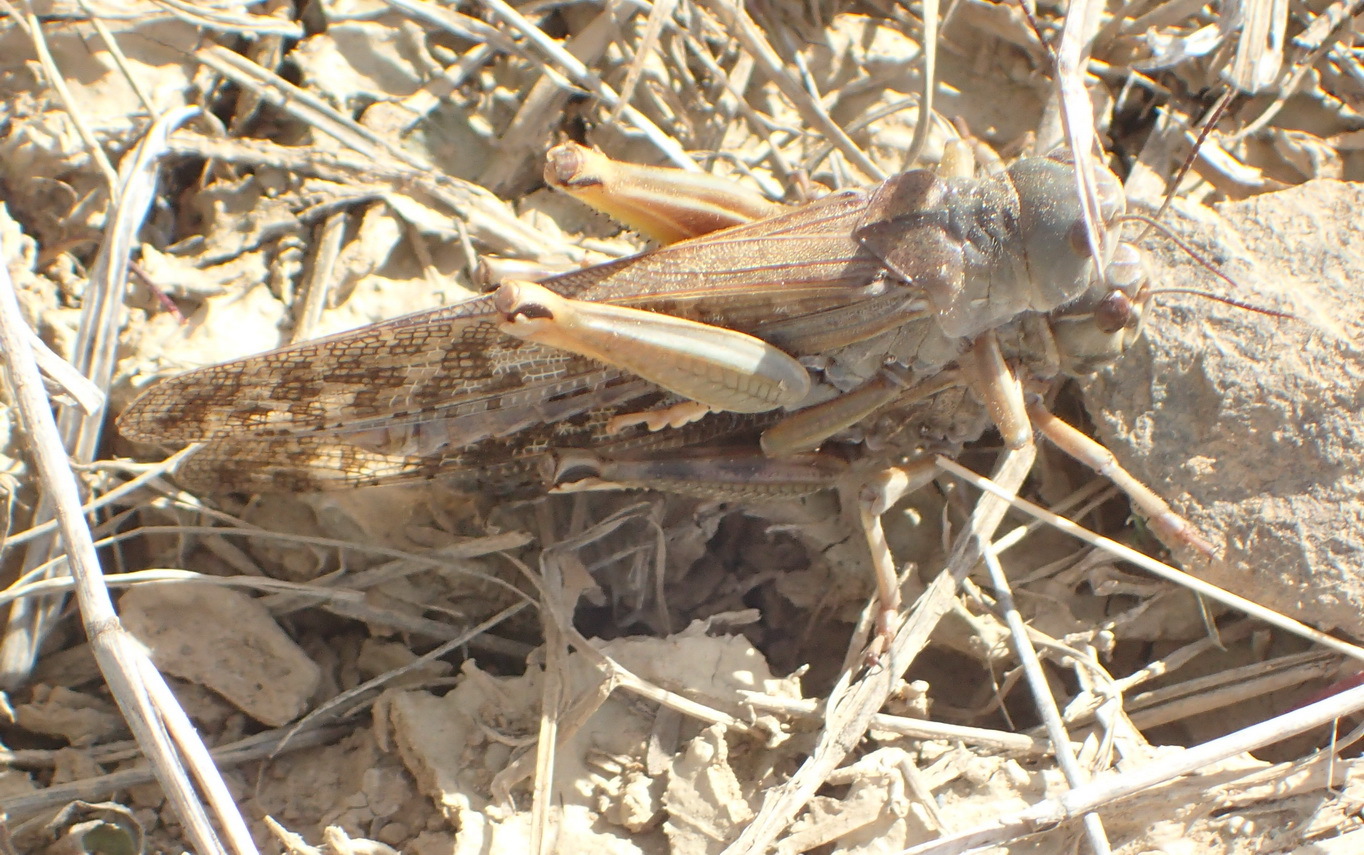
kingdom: Animalia
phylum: Arthropoda
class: Insecta
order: Orthoptera
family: Acrididae
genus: Locustana
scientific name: Locustana pardalina
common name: Brown locust
